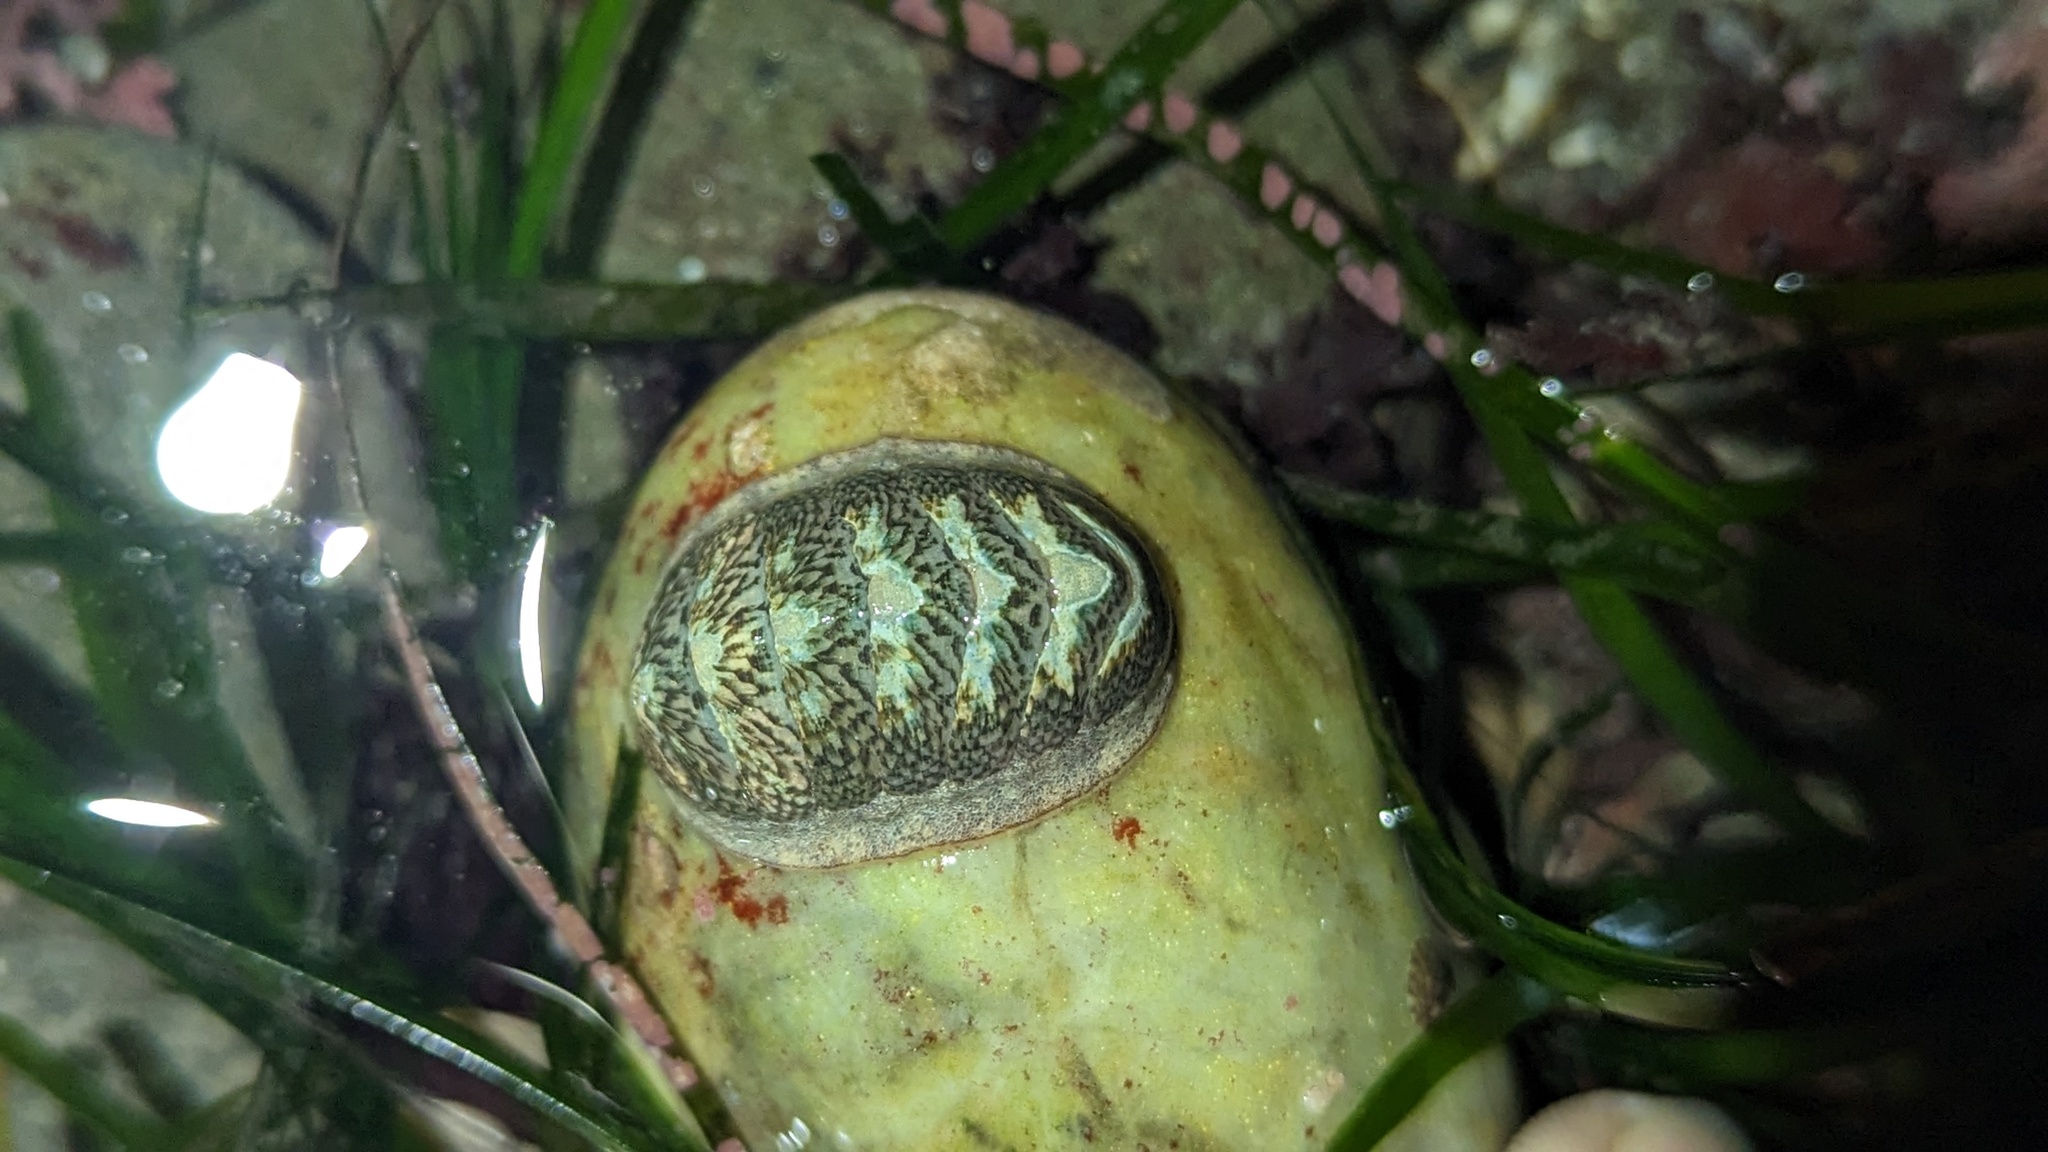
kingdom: Animalia
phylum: Mollusca
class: Polyplacophora
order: Chitonida
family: Ischnochitonidae
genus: Lepidozona
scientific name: Lepidozona radians
